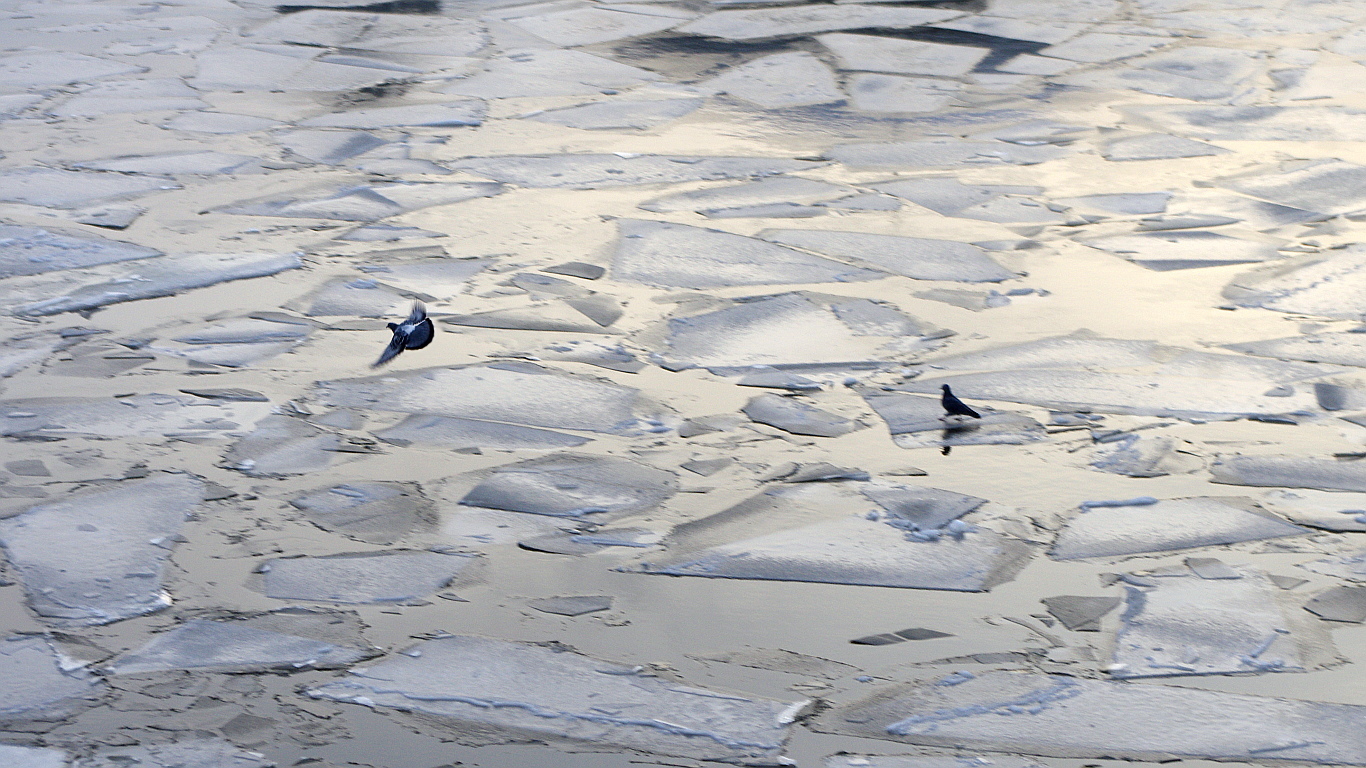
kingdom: Animalia
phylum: Chordata
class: Aves
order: Columbiformes
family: Columbidae
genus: Columba
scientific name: Columba livia
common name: Rock pigeon
